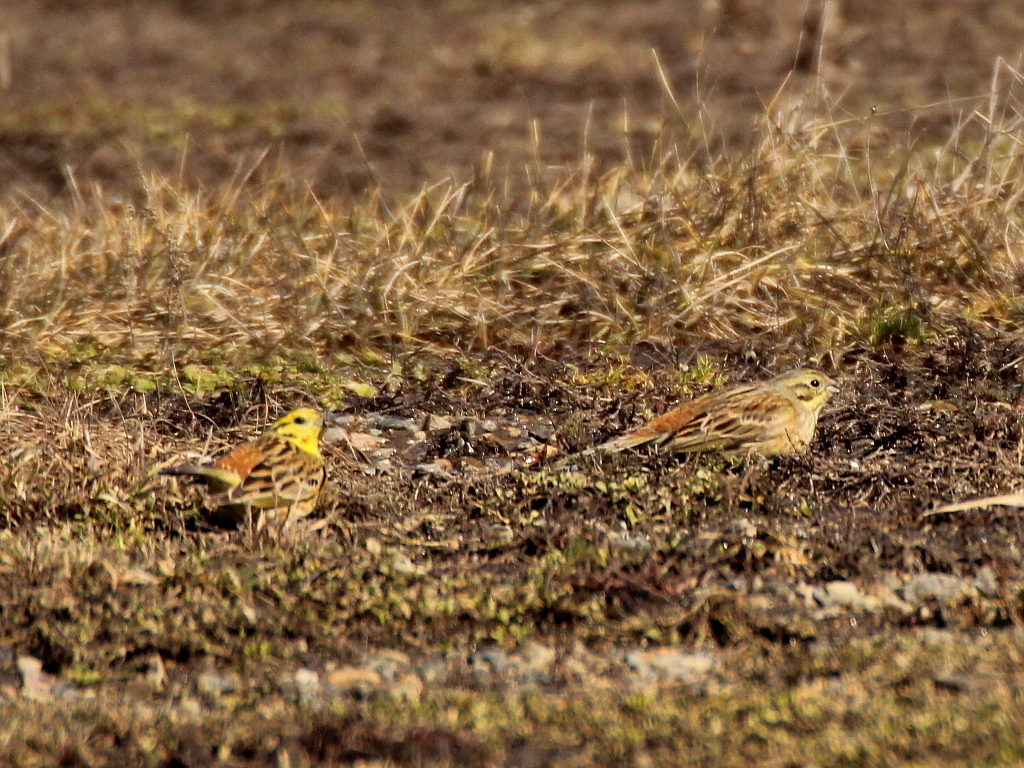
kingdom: Animalia
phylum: Chordata
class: Aves
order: Passeriformes
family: Emberizidae
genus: Emberiza
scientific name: Emberiza citrinella
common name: Yellowhammer
